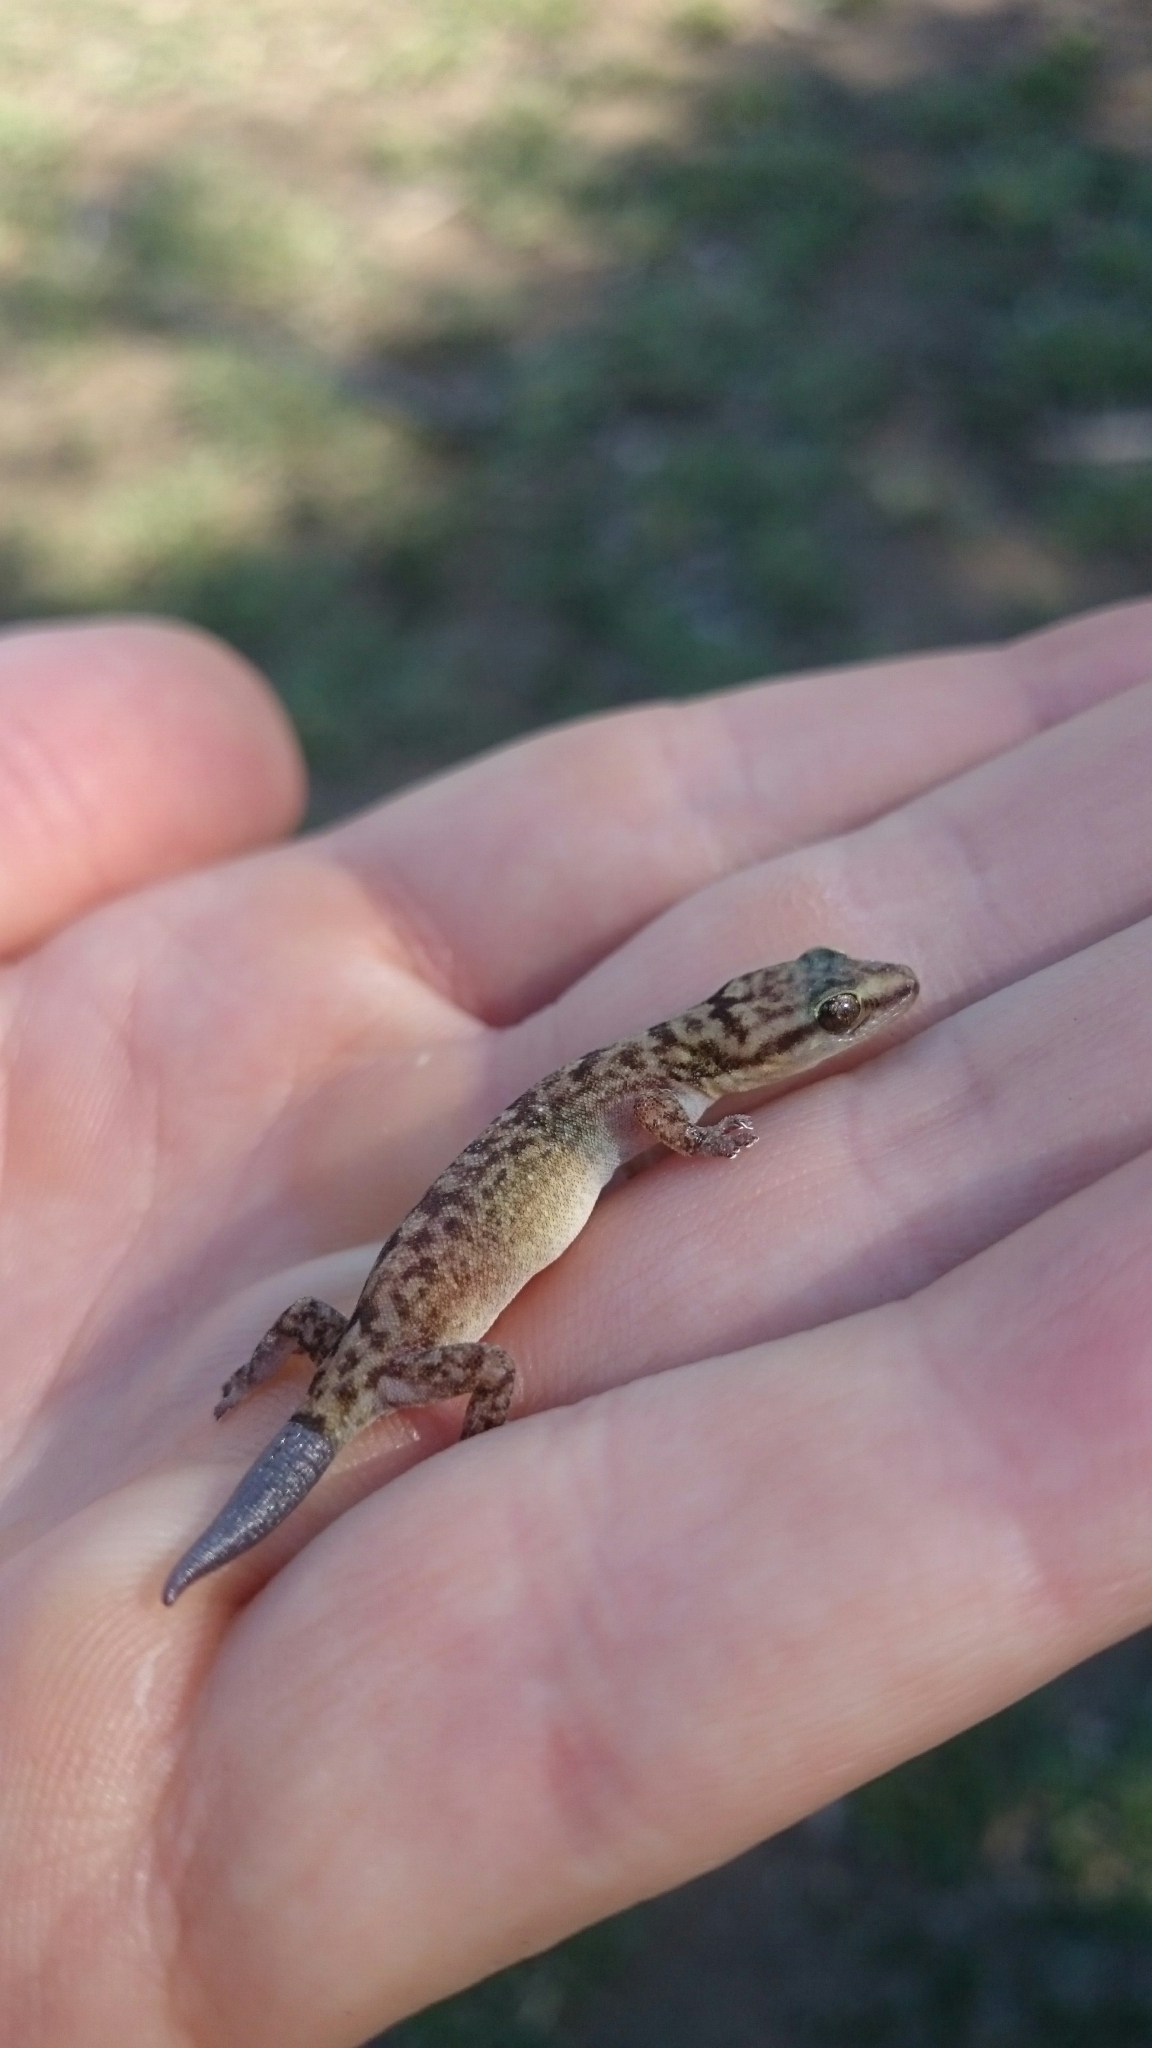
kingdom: Animalia
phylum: Chordata
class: Squamata
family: Gekkonidae
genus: Afroedura
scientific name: Afroedura marleyi
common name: Marley's flat gecko
